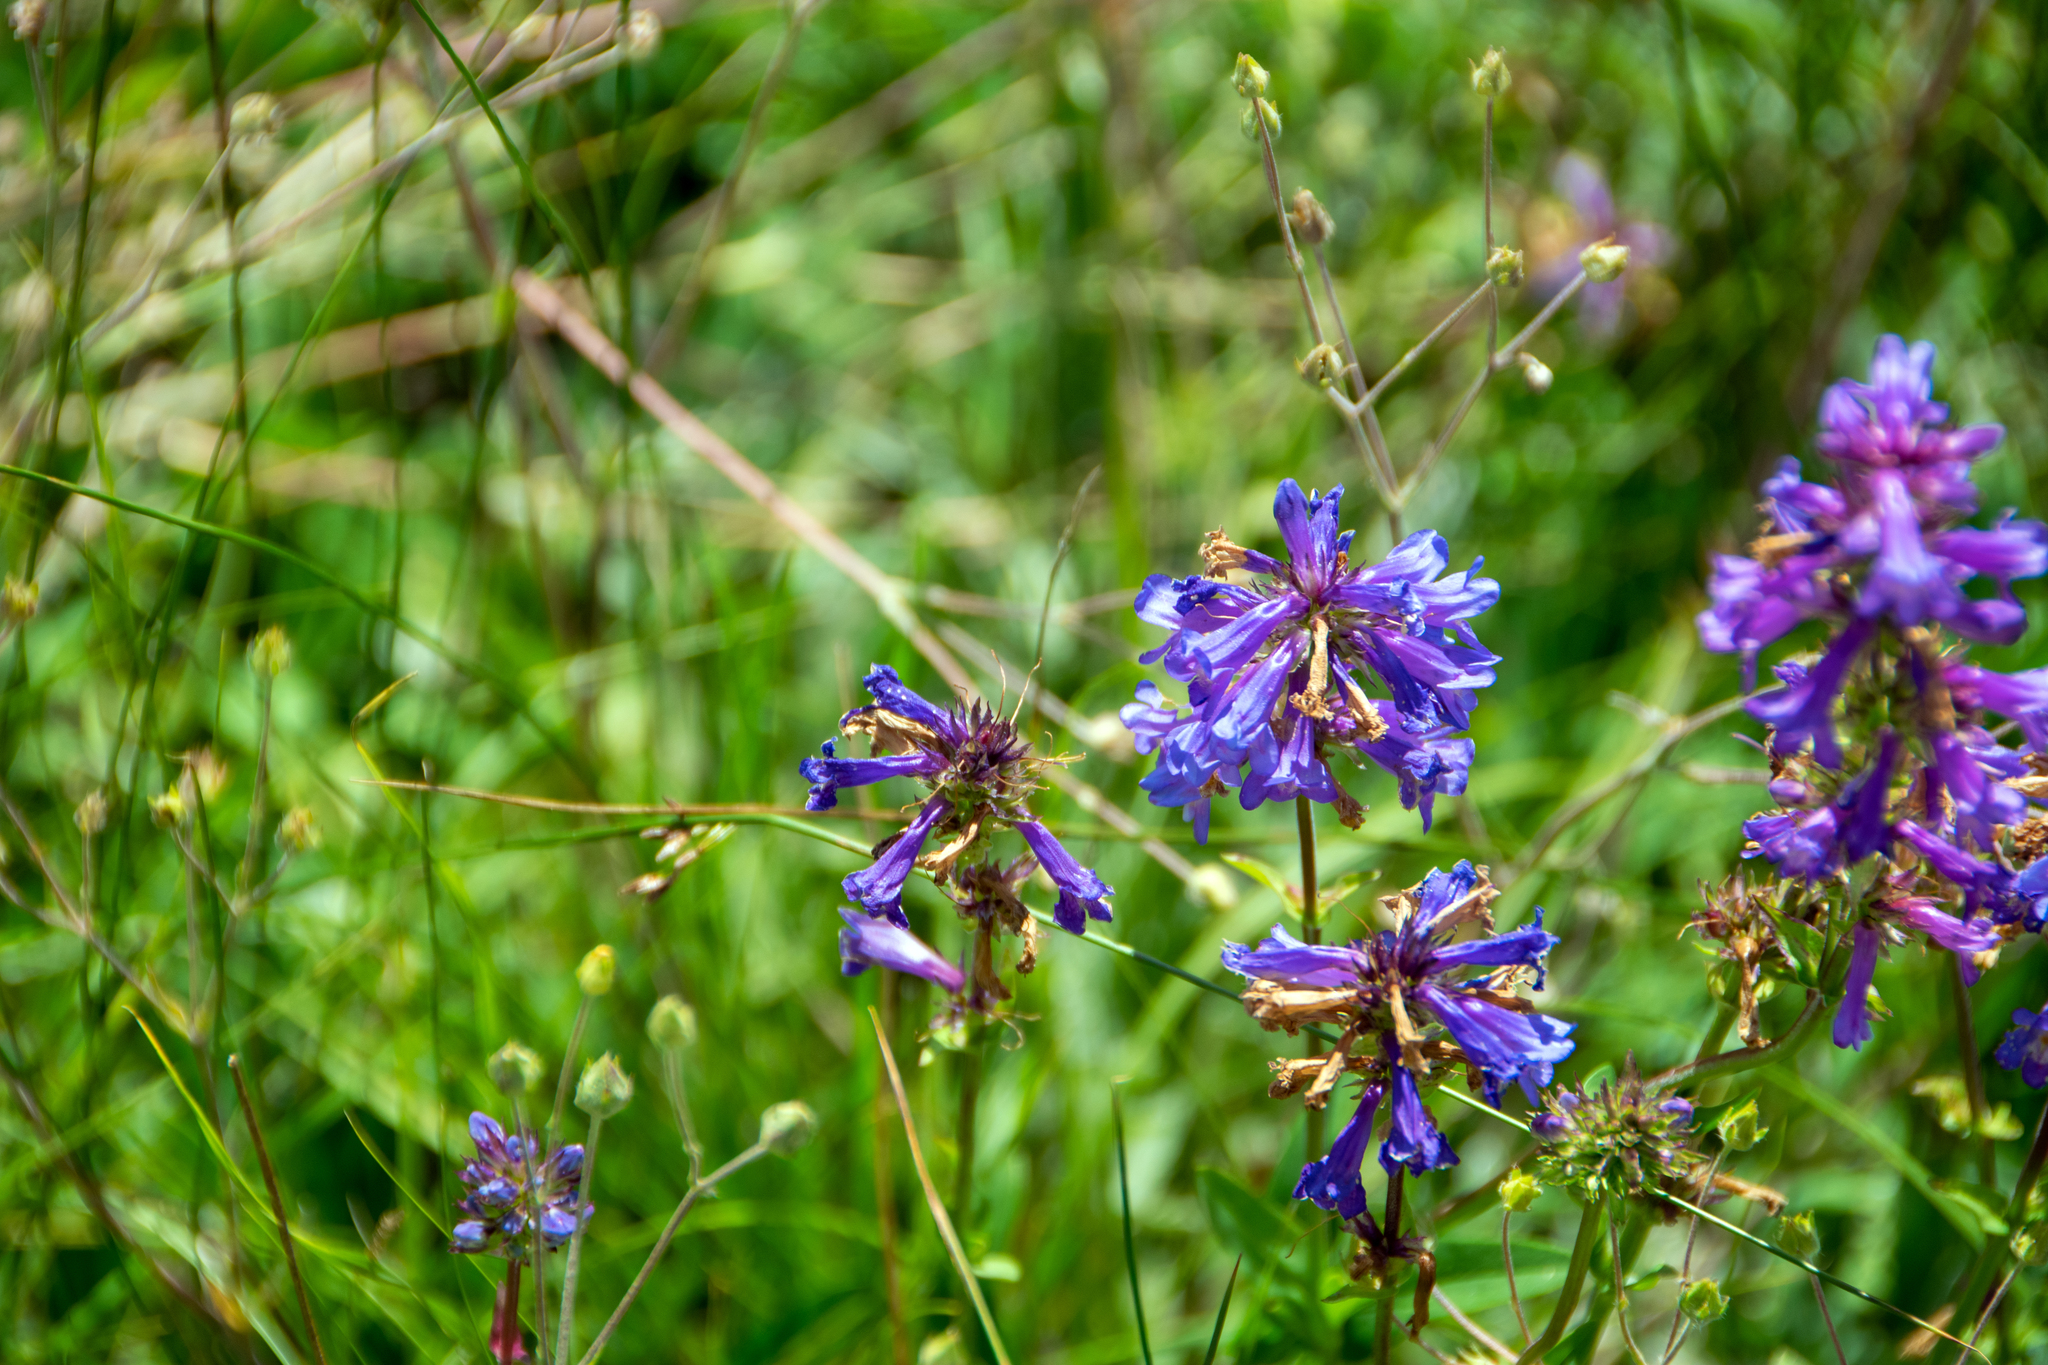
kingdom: Plantae
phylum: Tracheophyta
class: Magnoliopsida
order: Lamiales
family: Plantaginaceae
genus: Penstemon
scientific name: Penstemon rydbergii
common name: Rydberg's beardtongue
